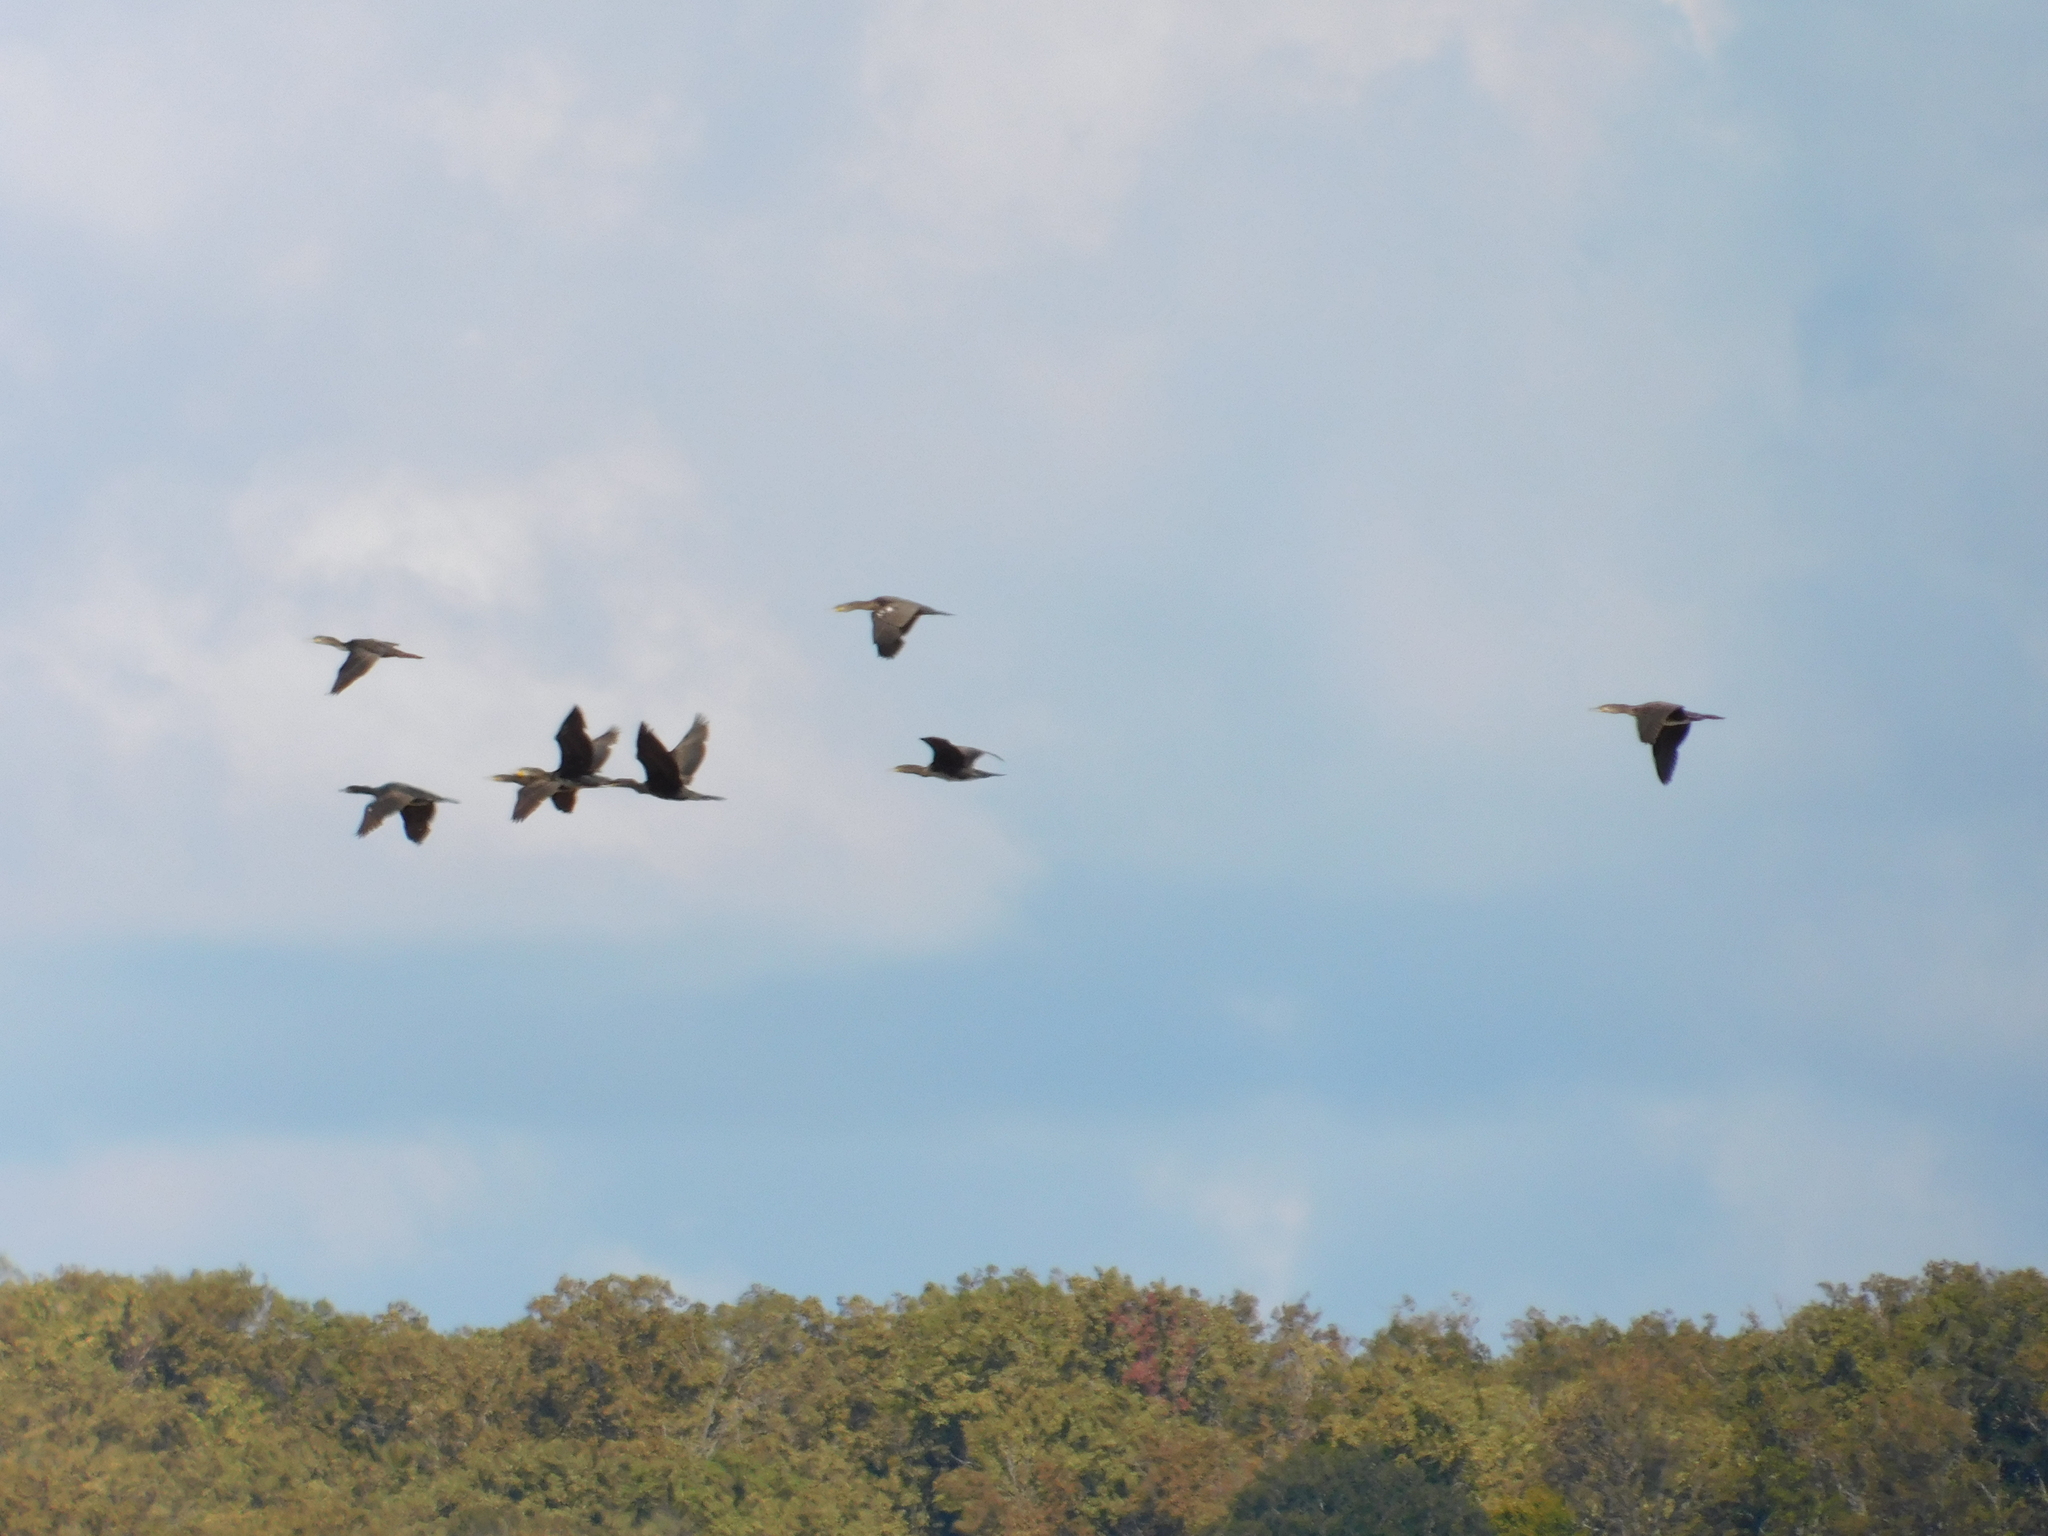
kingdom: Animalia
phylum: Chordata
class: Aves
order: Suliformes
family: Phalacrocoracidae
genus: Phalacrocorax
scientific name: Phalacrocorax carbo
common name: Great cormorant
